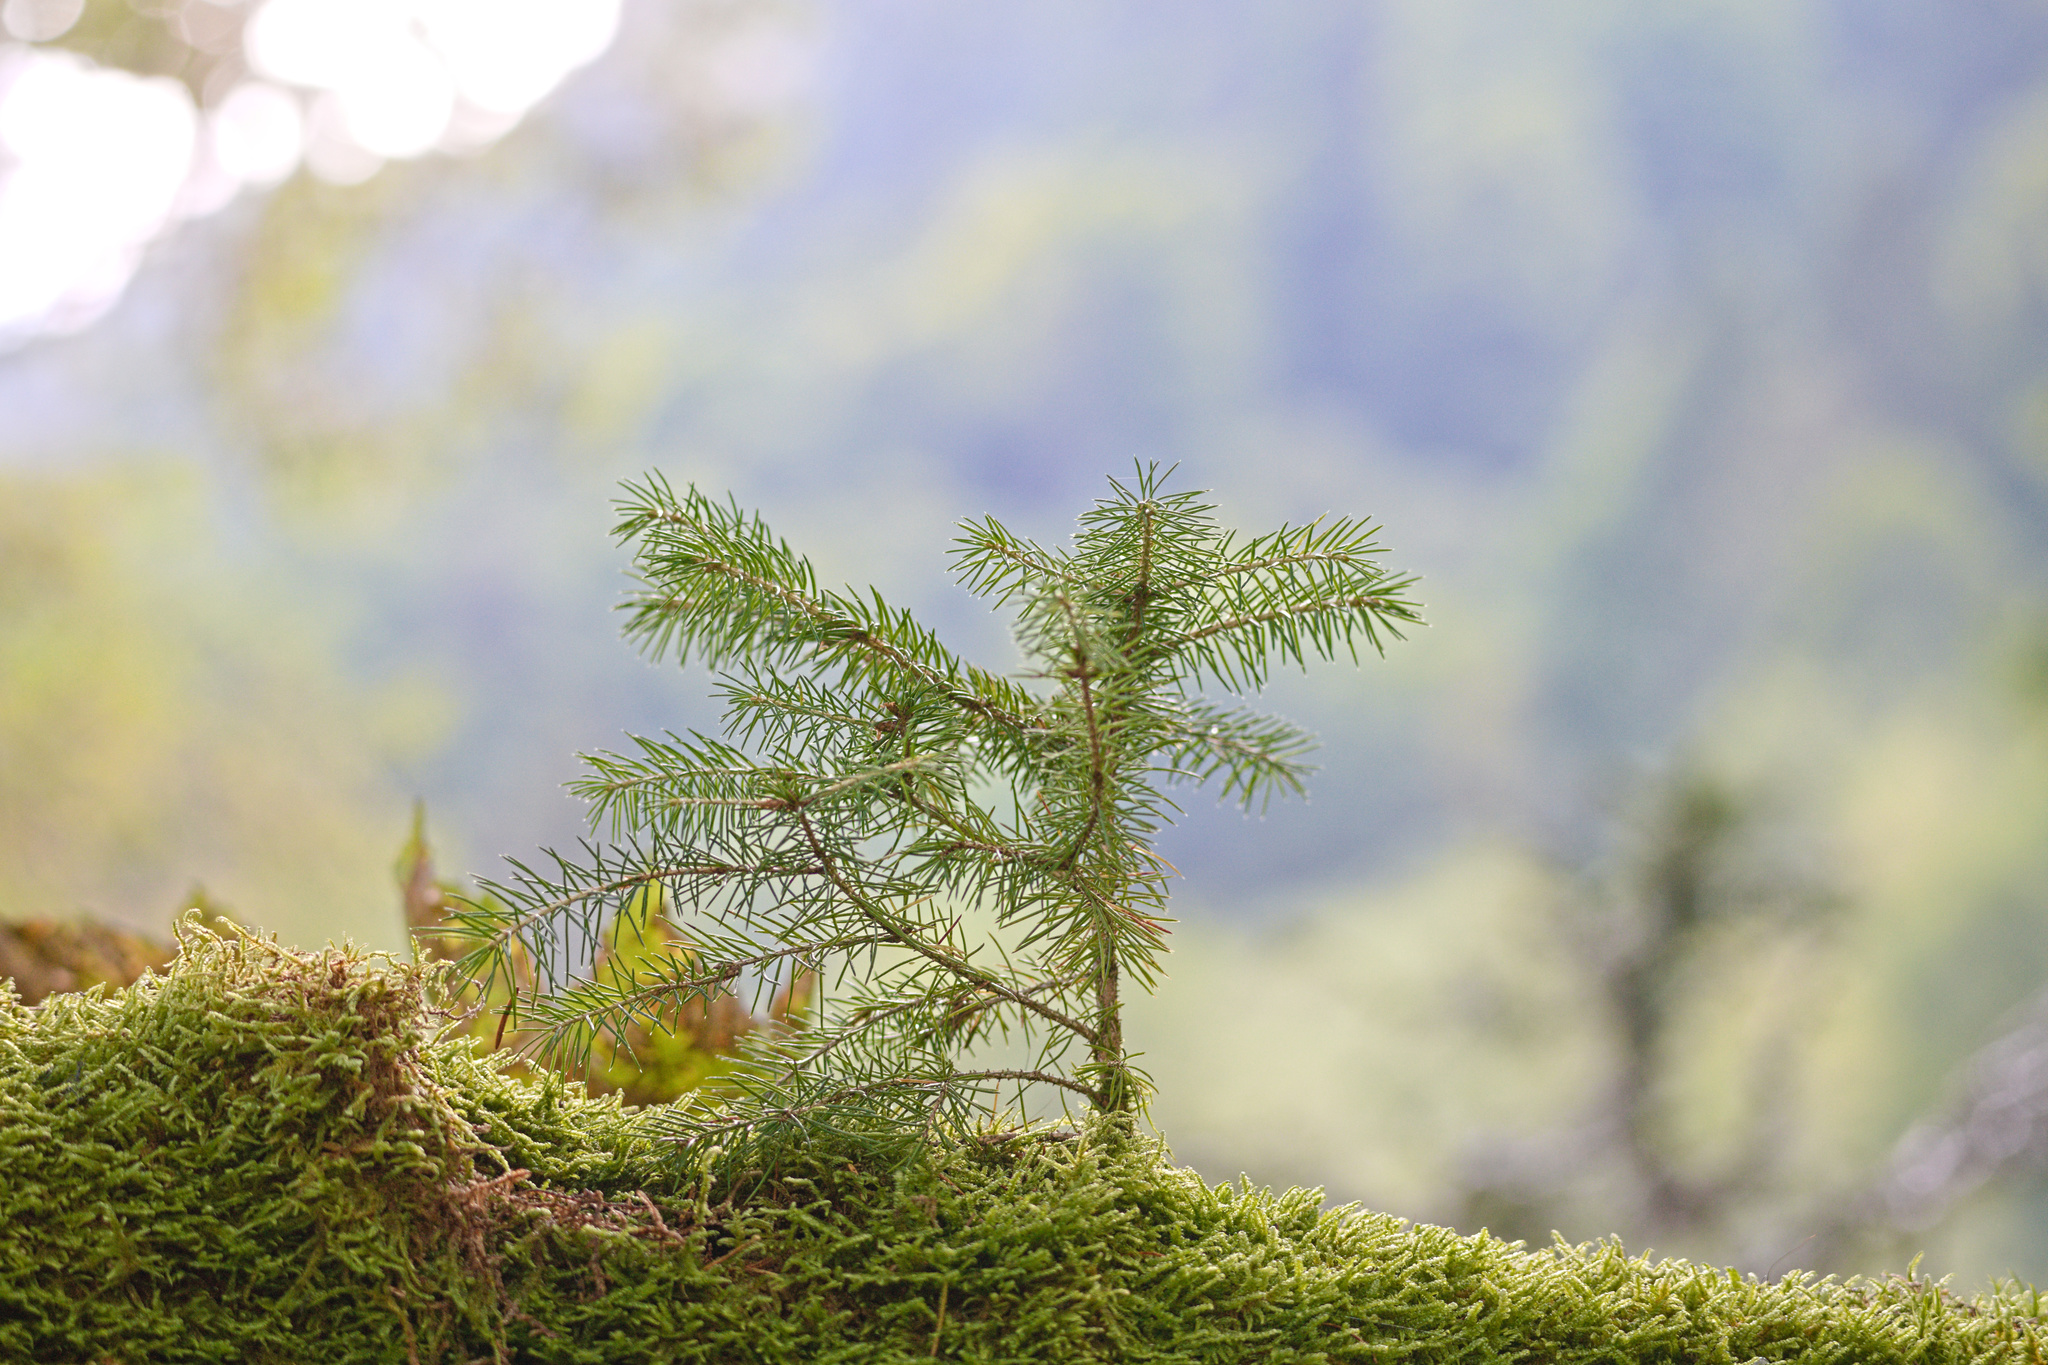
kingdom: Plantae
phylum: Tracheophyta
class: Pinopsida
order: Pinales
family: Pinaceae
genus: Picea
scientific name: Picea abies
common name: Norway spruce
